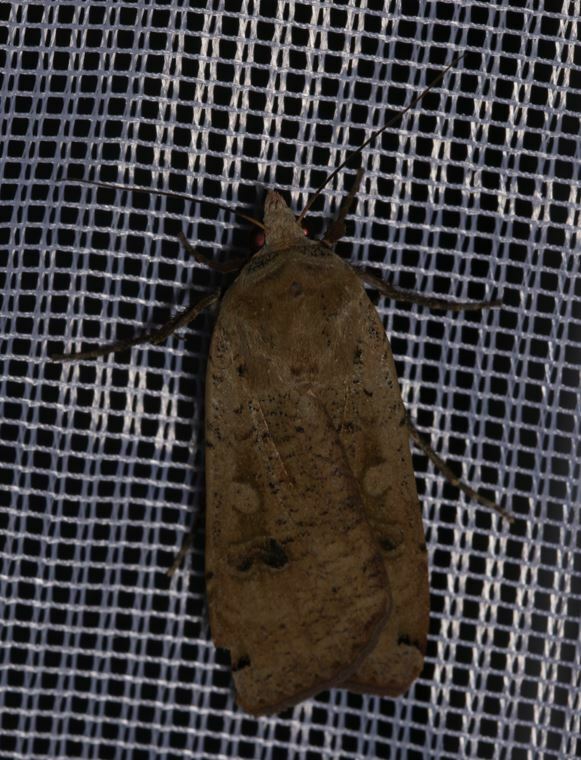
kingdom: Animalia
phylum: Arthropoda
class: Insecta
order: Lepidoptera
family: Noctuidae
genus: Noctua
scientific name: Noctua pronuba
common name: Large yellow underwing
